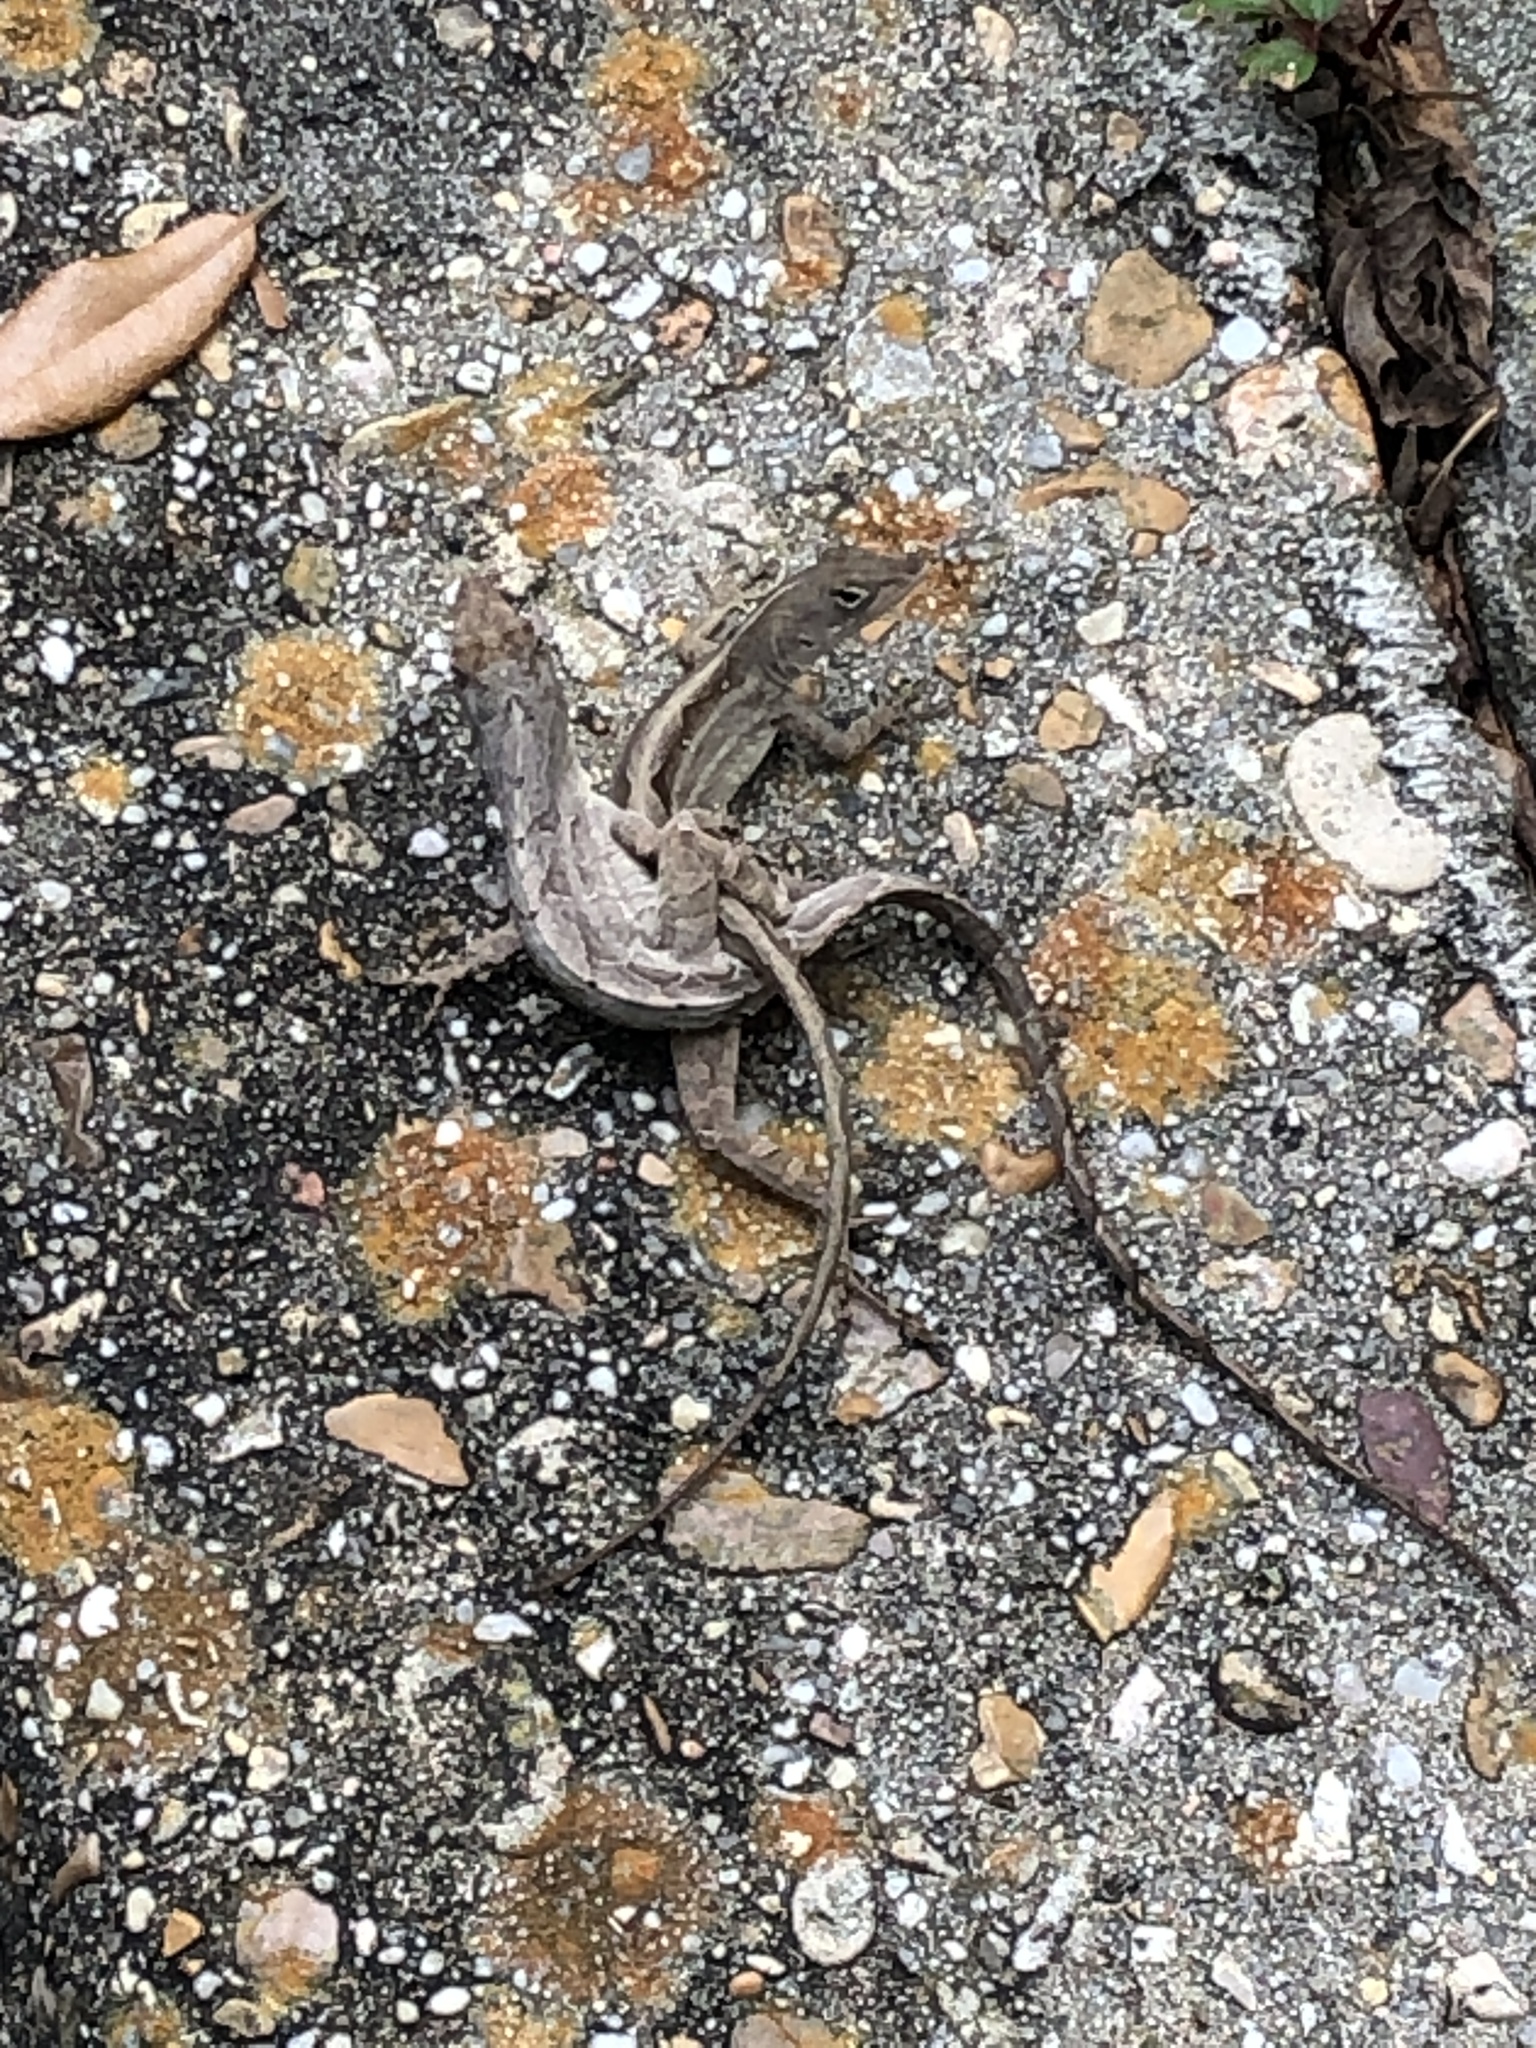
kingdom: Animalia
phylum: Chordata
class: Squamata
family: Dactyloidae
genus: Anolis
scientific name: Anolis sagrei
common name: Brown anole
